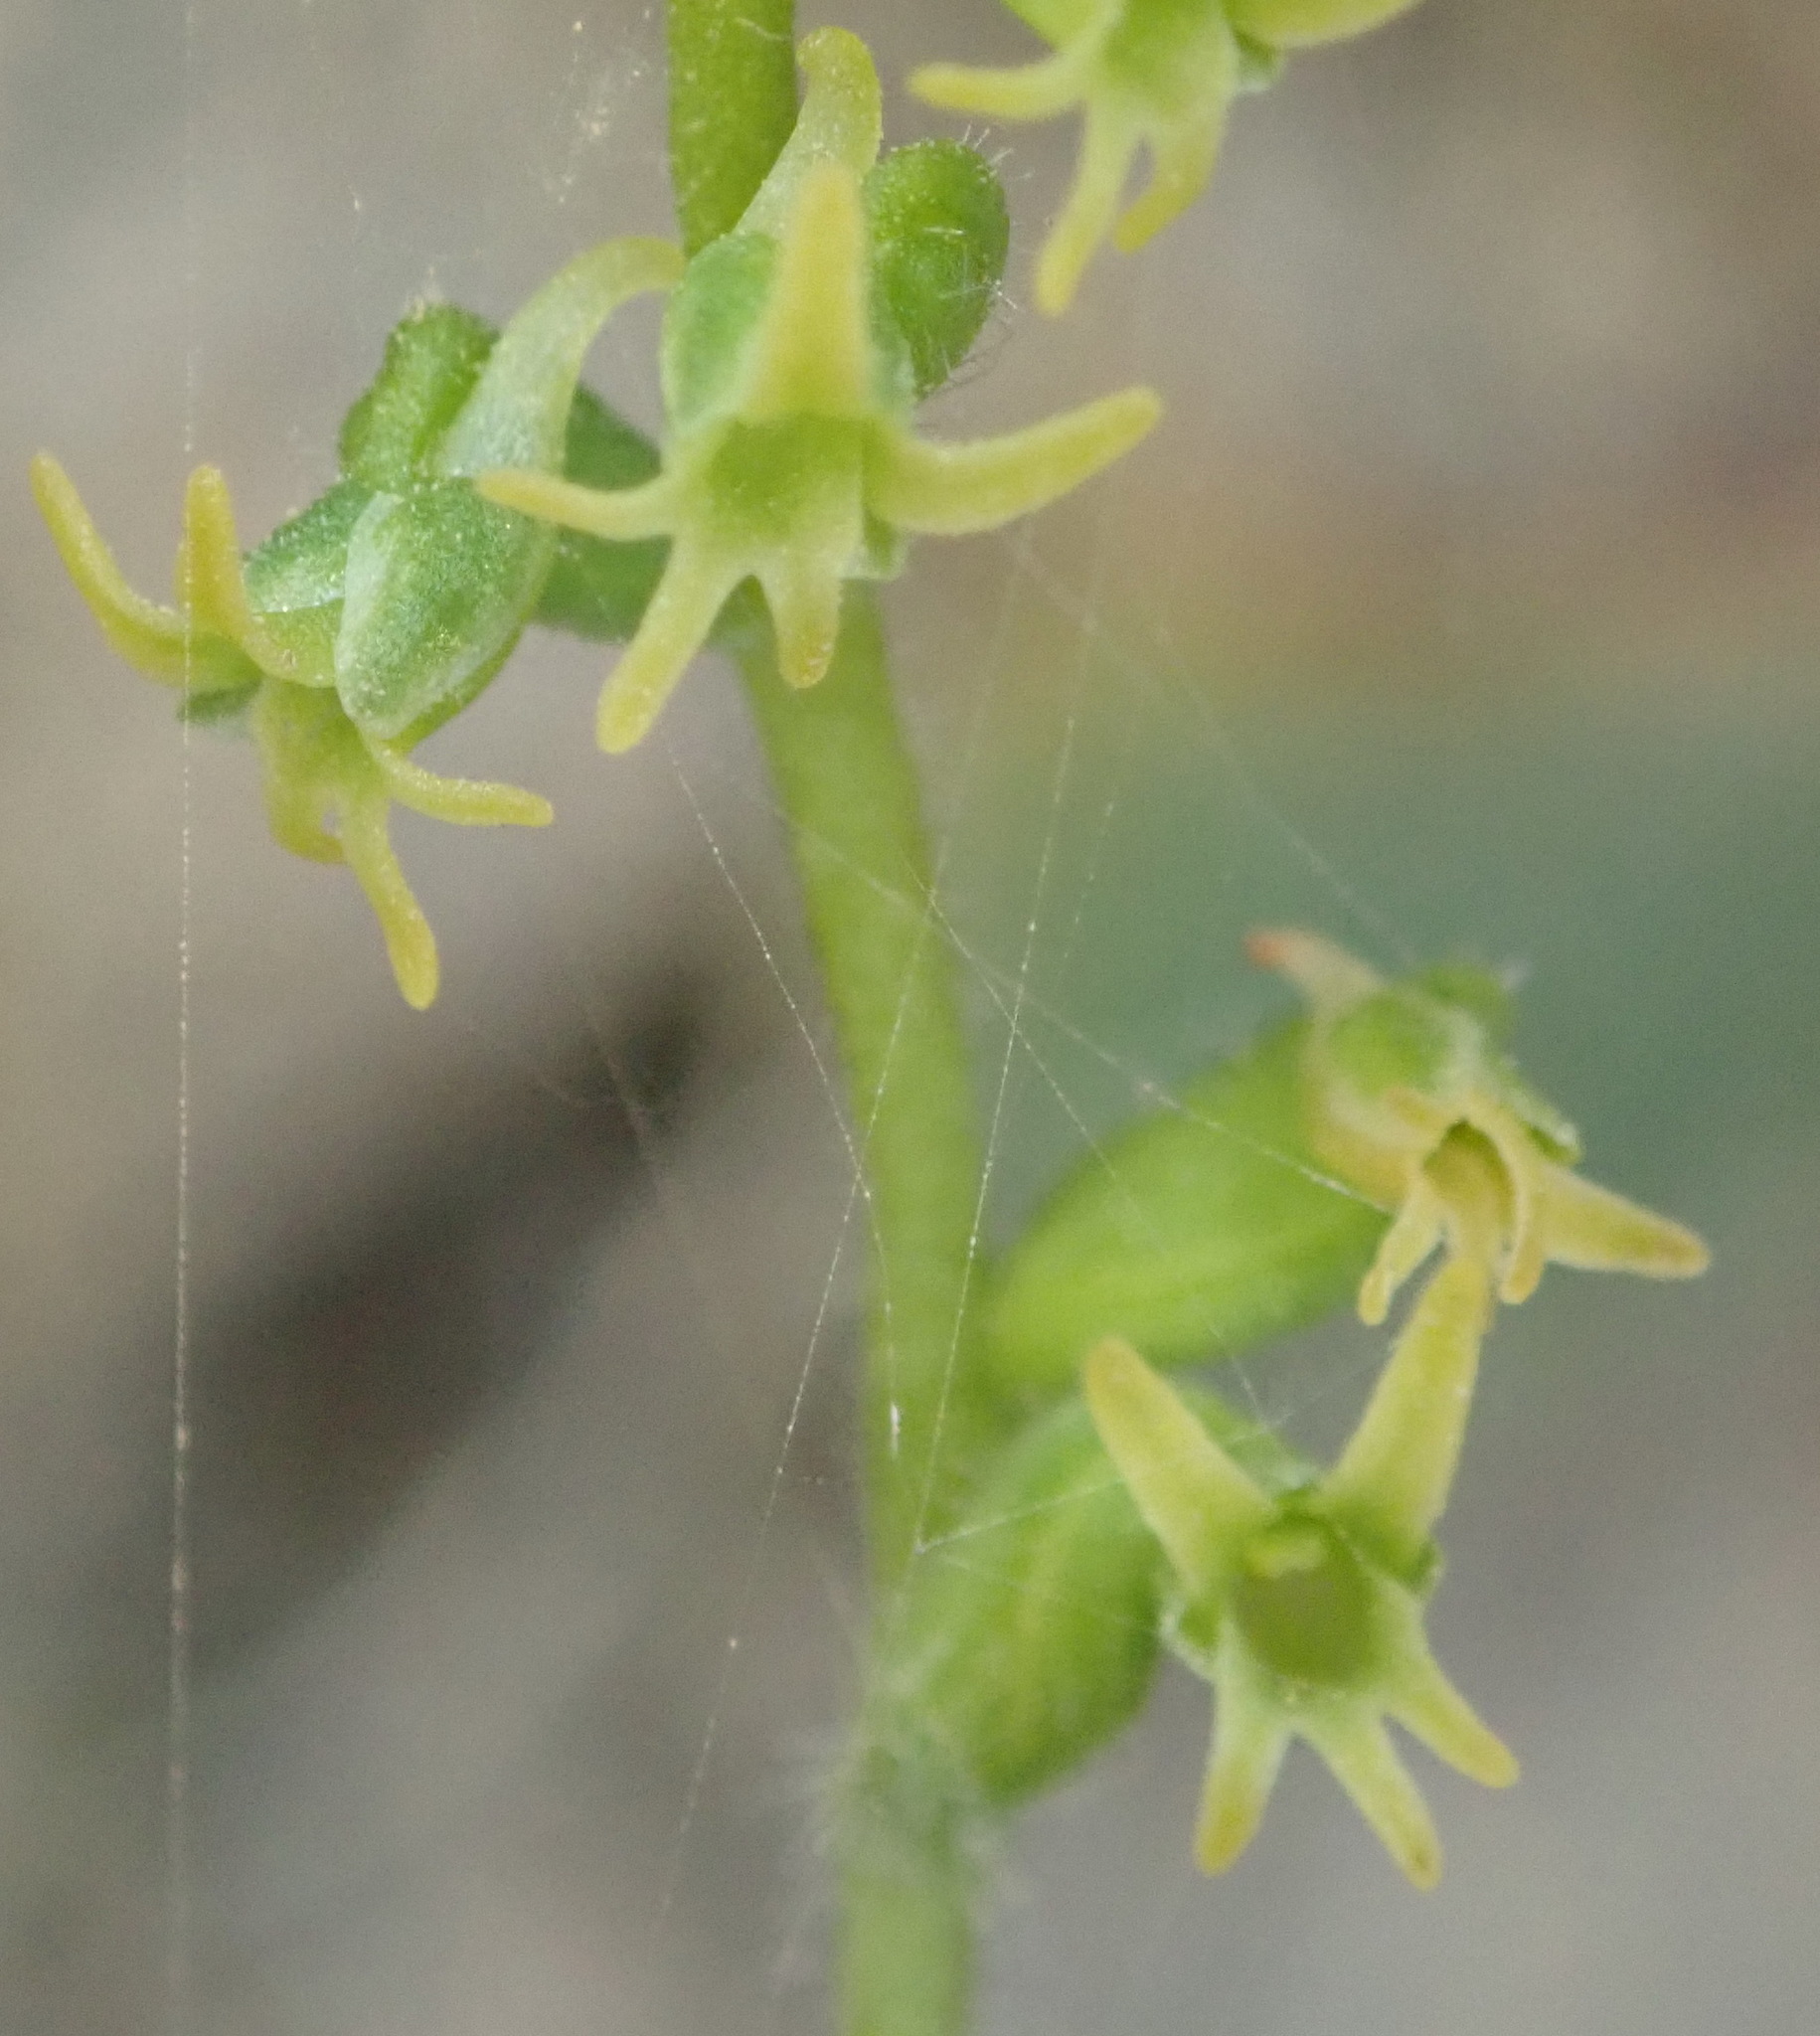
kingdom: Plantae
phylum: Tracheophyta
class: Liliopsida
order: Asparagales
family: Orchidaceae
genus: Holothrix
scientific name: Holothrix villosa
